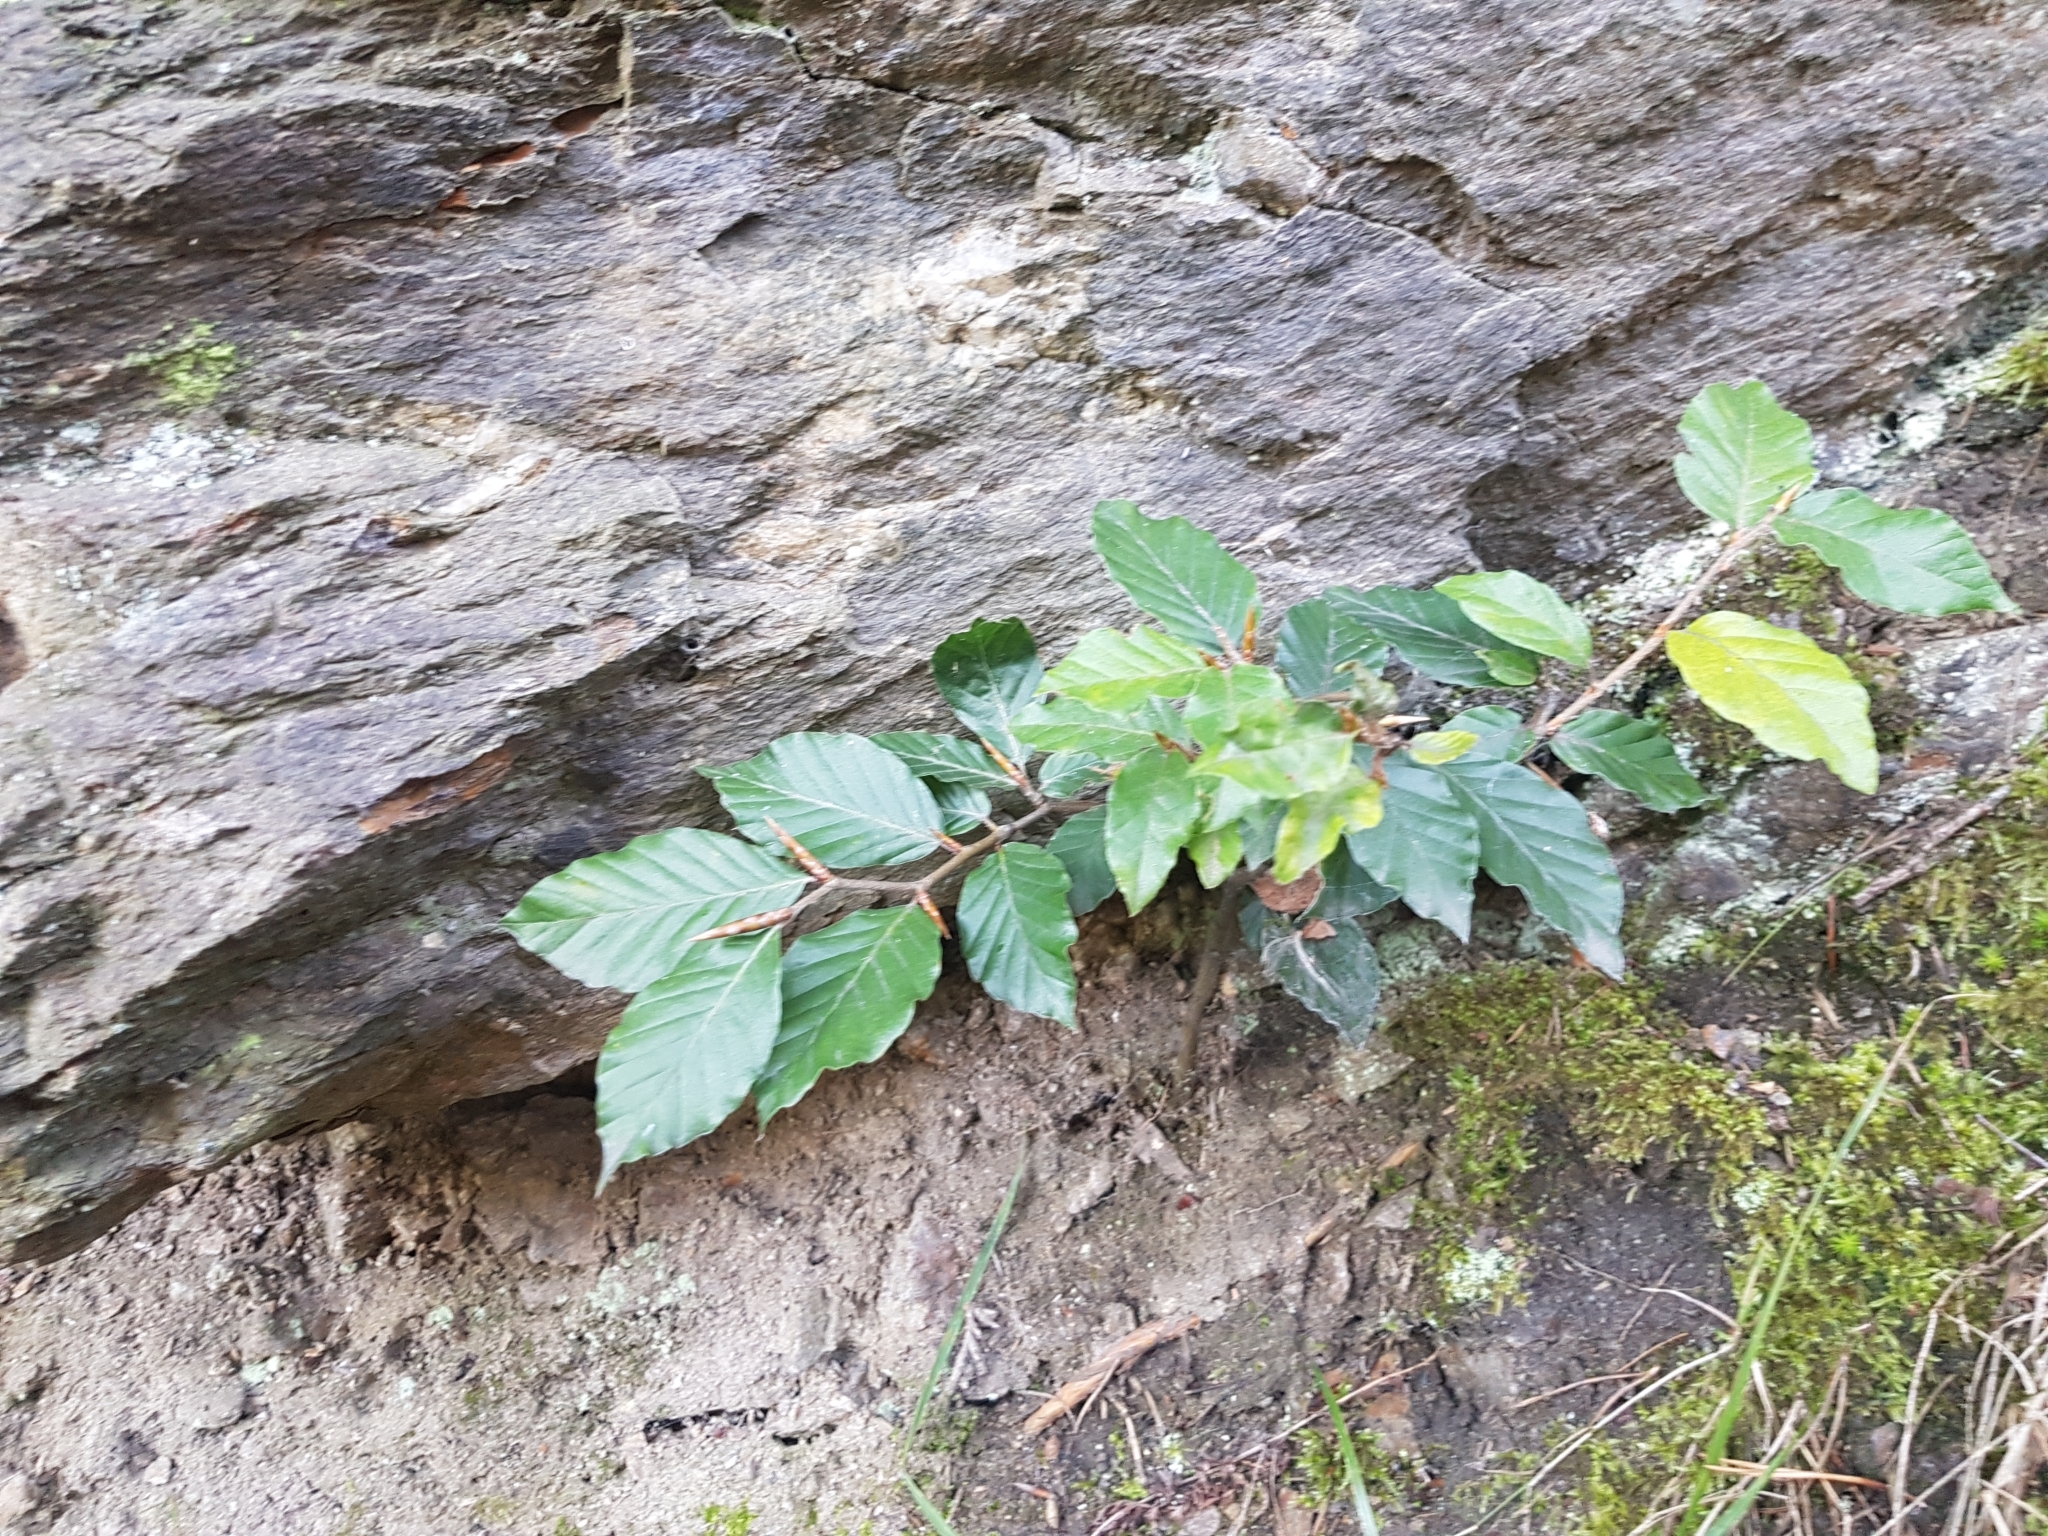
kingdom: Plantae
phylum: Tracheophyta
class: Magnoliopsida
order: Fagales
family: Fagaceae
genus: Fagus
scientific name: Fagus sylvatica
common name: Beech
